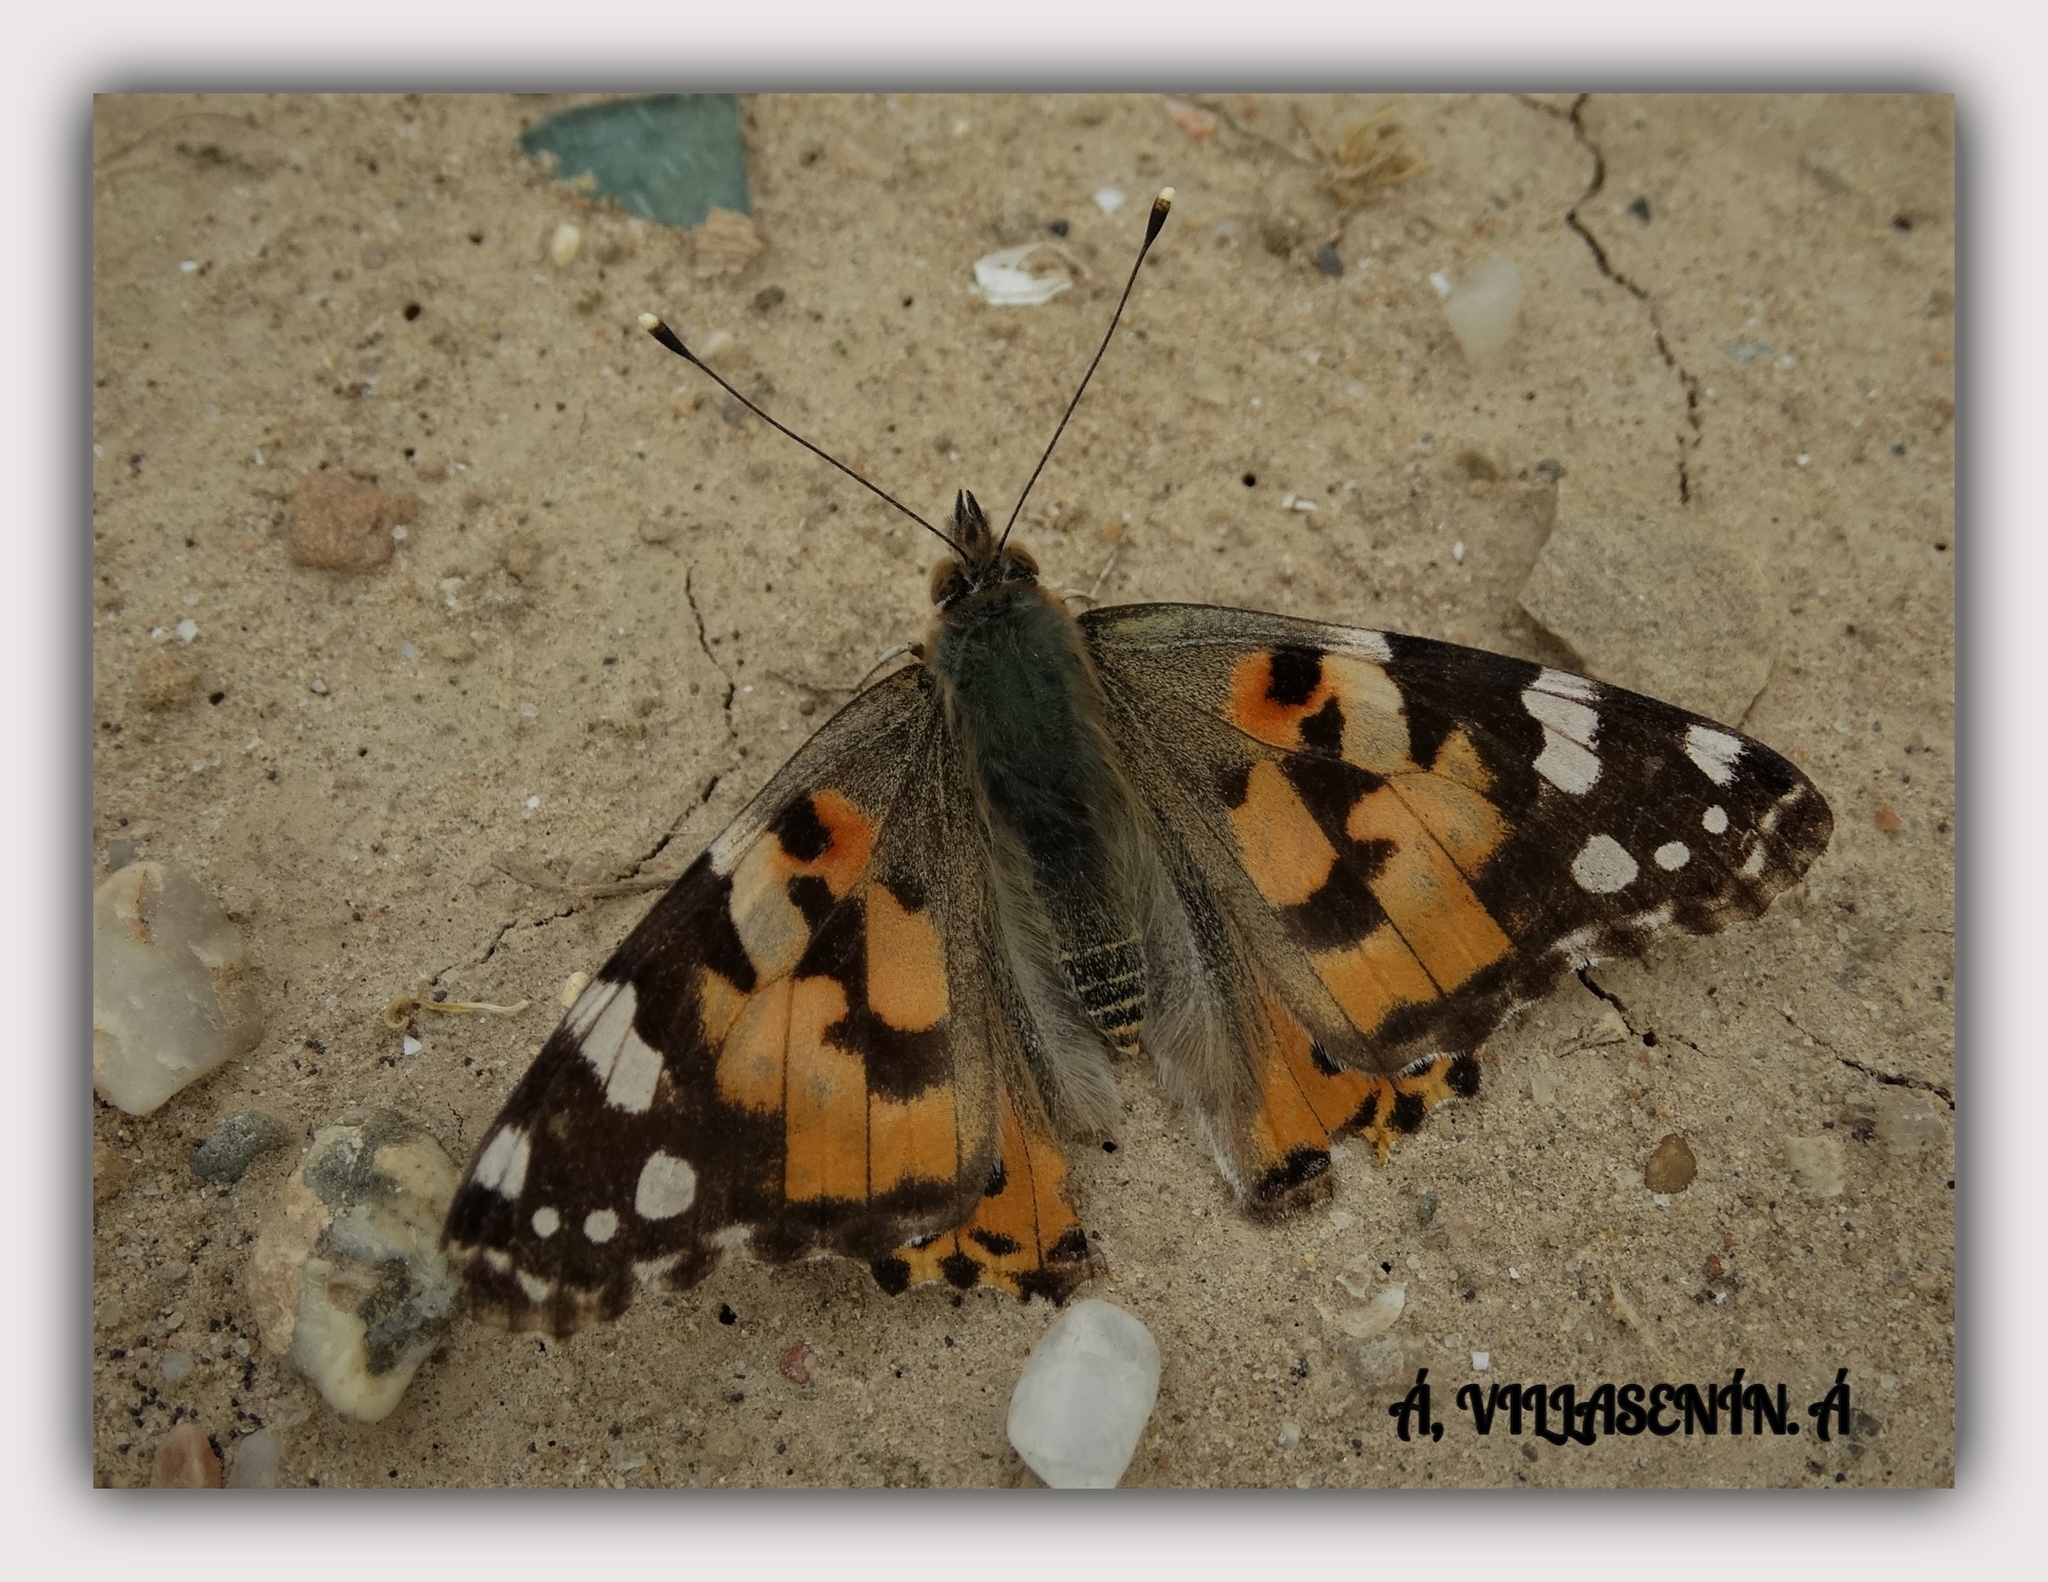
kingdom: Animalia
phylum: Arthropoda
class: Insecta
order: Lepidoptera
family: Nymphalidae
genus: Vanessa
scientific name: Vanessa cardui
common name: Painted lady
